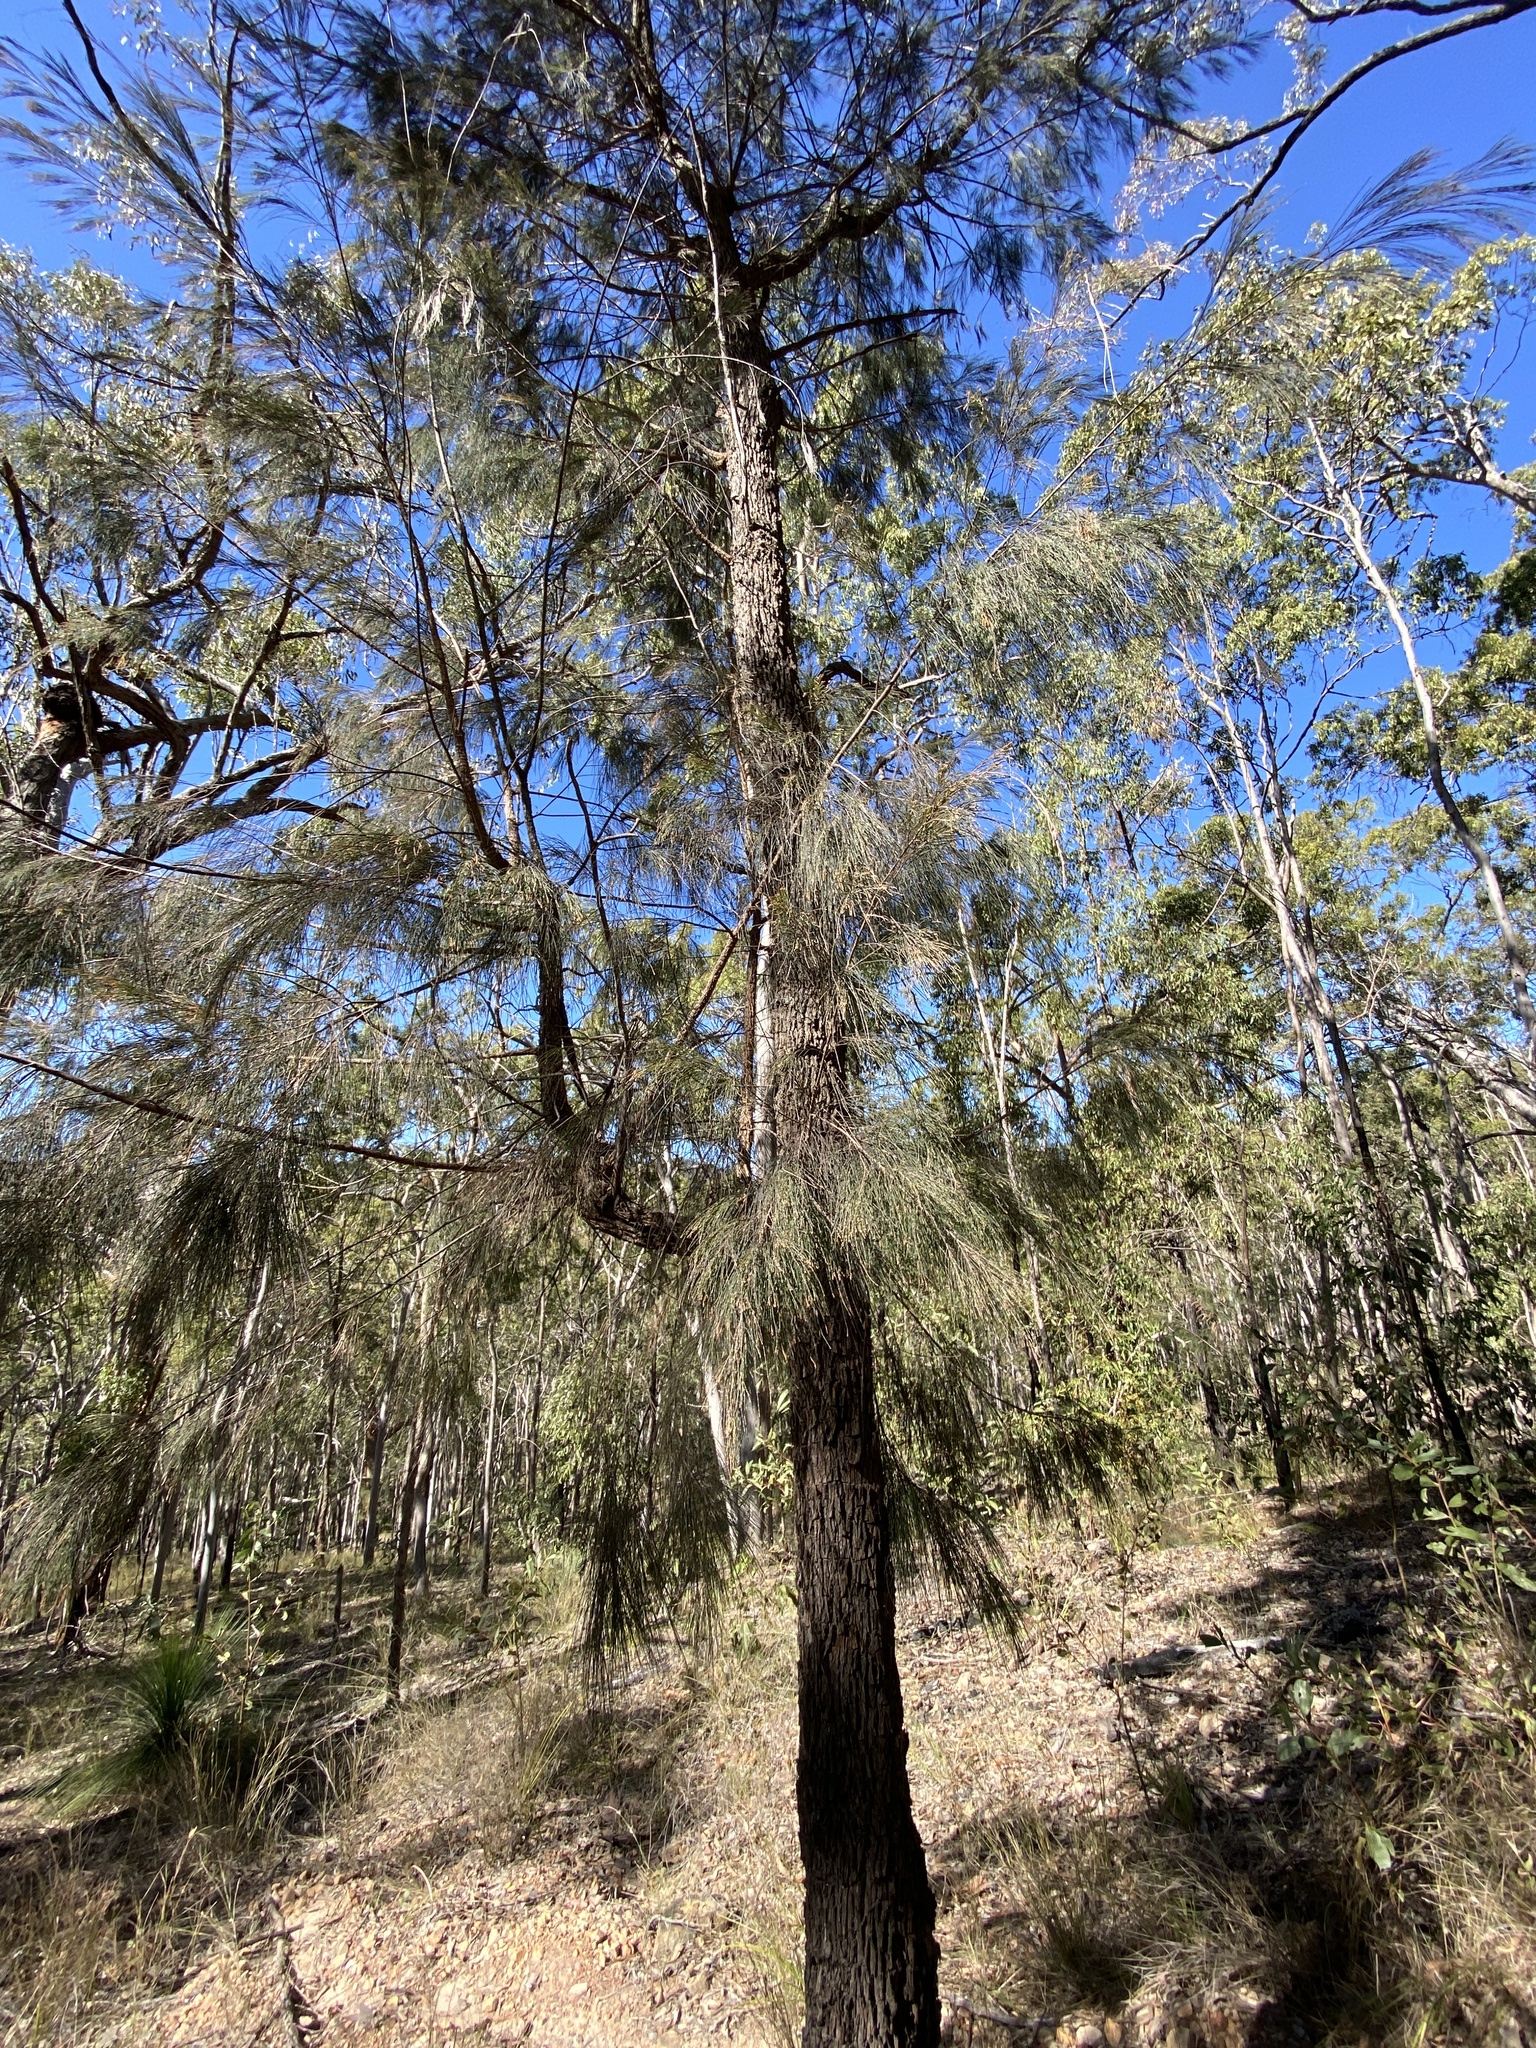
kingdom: Plantae
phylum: Tracheophyta
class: Magnoliopsida
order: Fagales
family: Casuarinaceae
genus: Allocasuarina
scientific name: Allocasuarina torulosa
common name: Forest-oak
